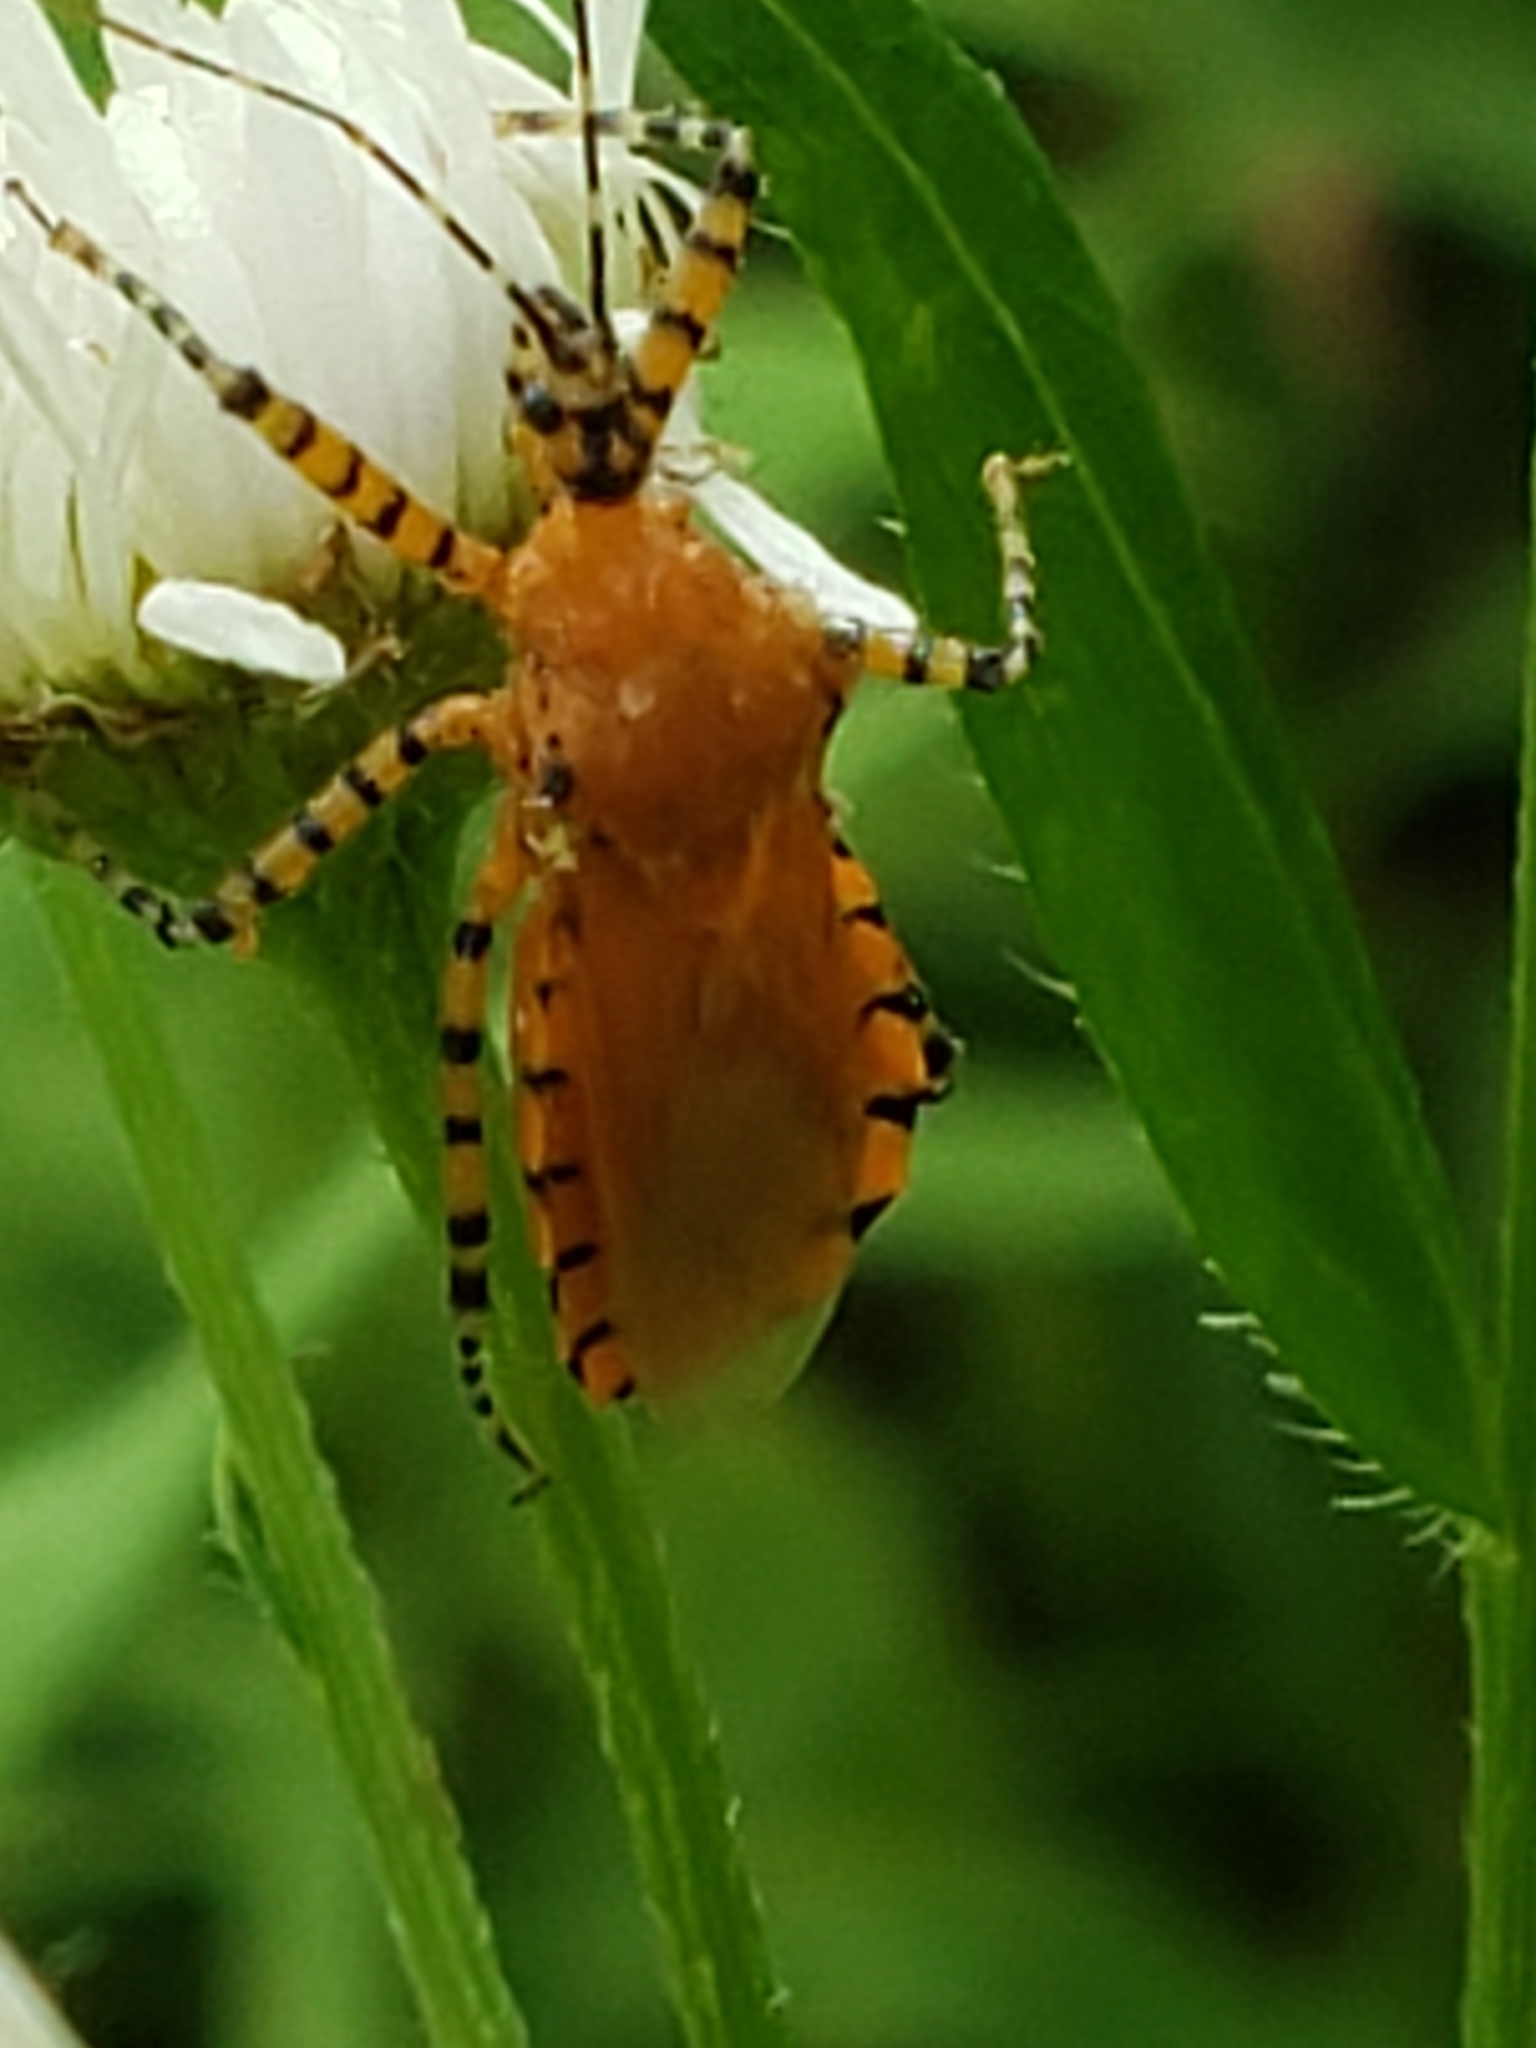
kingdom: Animalia
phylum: Arthropoda
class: Insecta
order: Hemiptera
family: Reduviidae
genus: Pselliopus
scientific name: Pselliopus barberi
